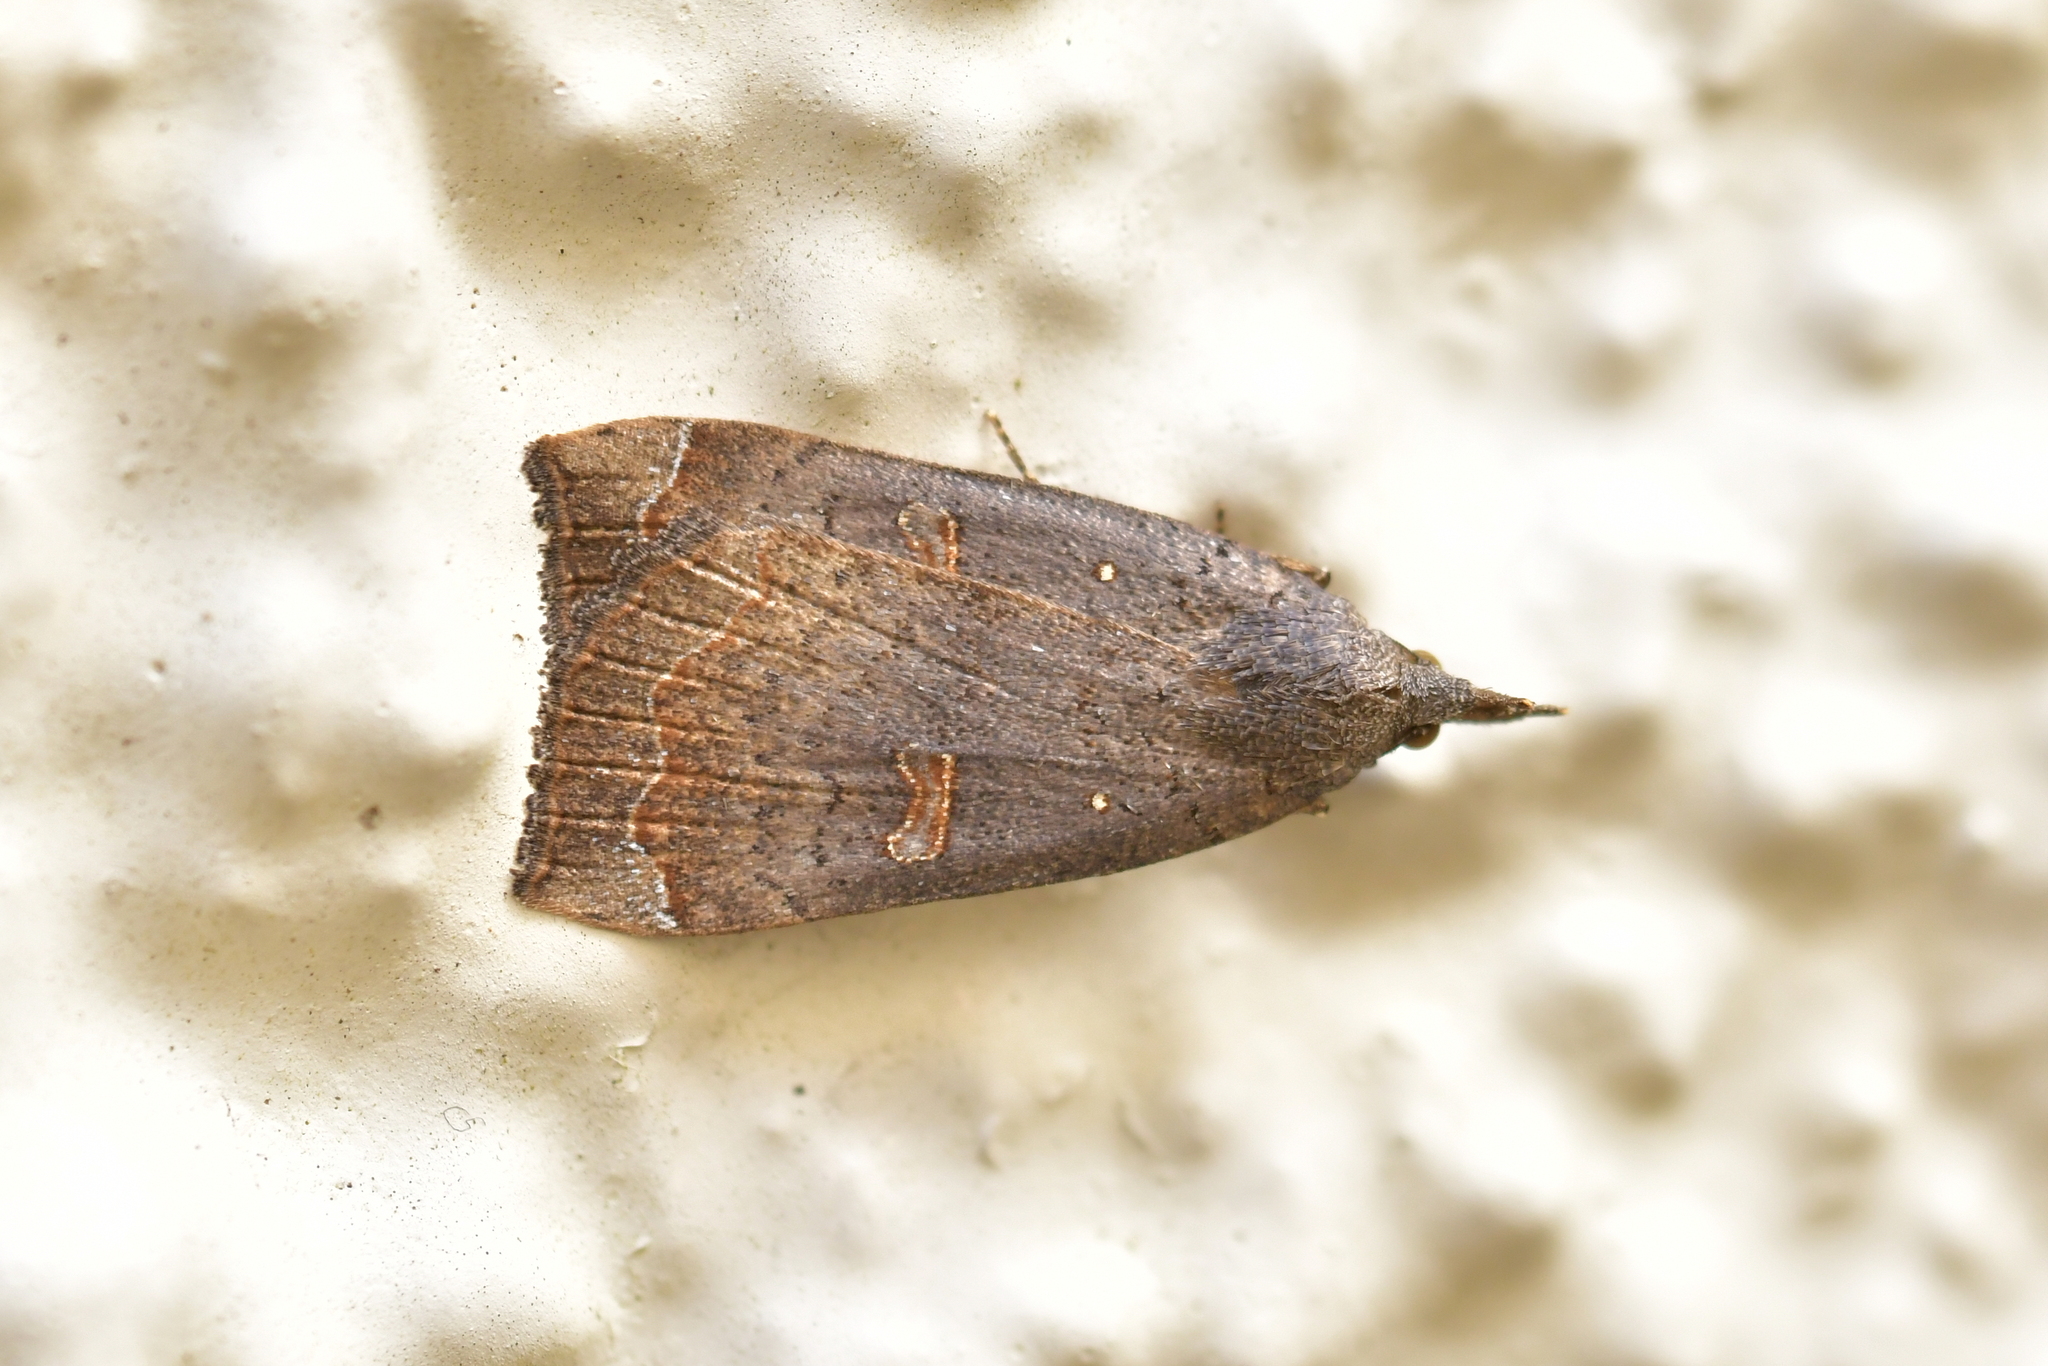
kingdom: Animalia
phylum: Arthropoda
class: Insecta
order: Lepidoptera
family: Erebidae
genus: Rhapsa
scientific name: Rhapsa scotosialis
